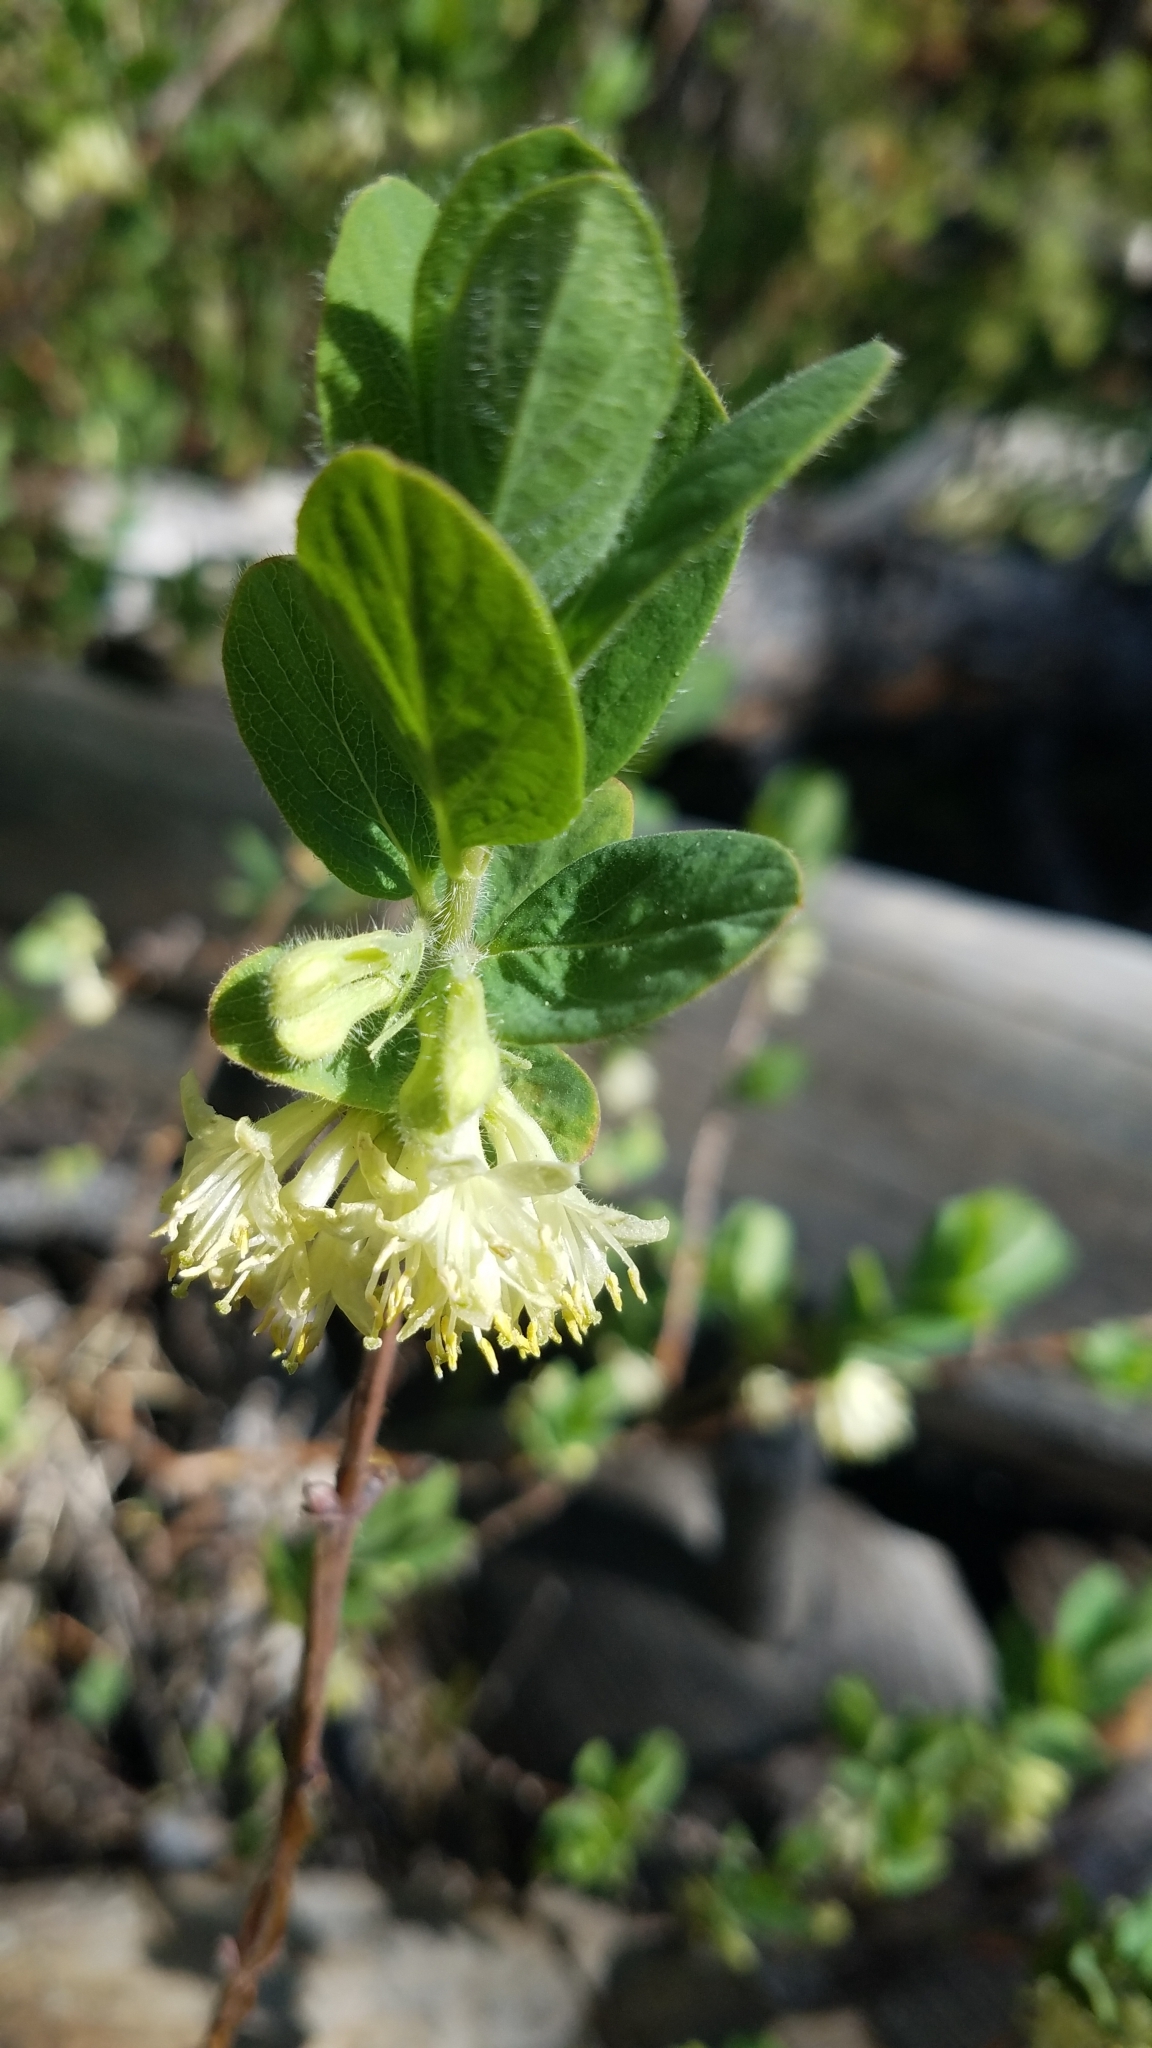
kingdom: Plantae
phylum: Tracheophyta
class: Magnoliopsida
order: Dipsacales
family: Caprifoliaceae
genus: Lonicera
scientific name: Lonicera caerulea
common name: Blue honeysuckle
